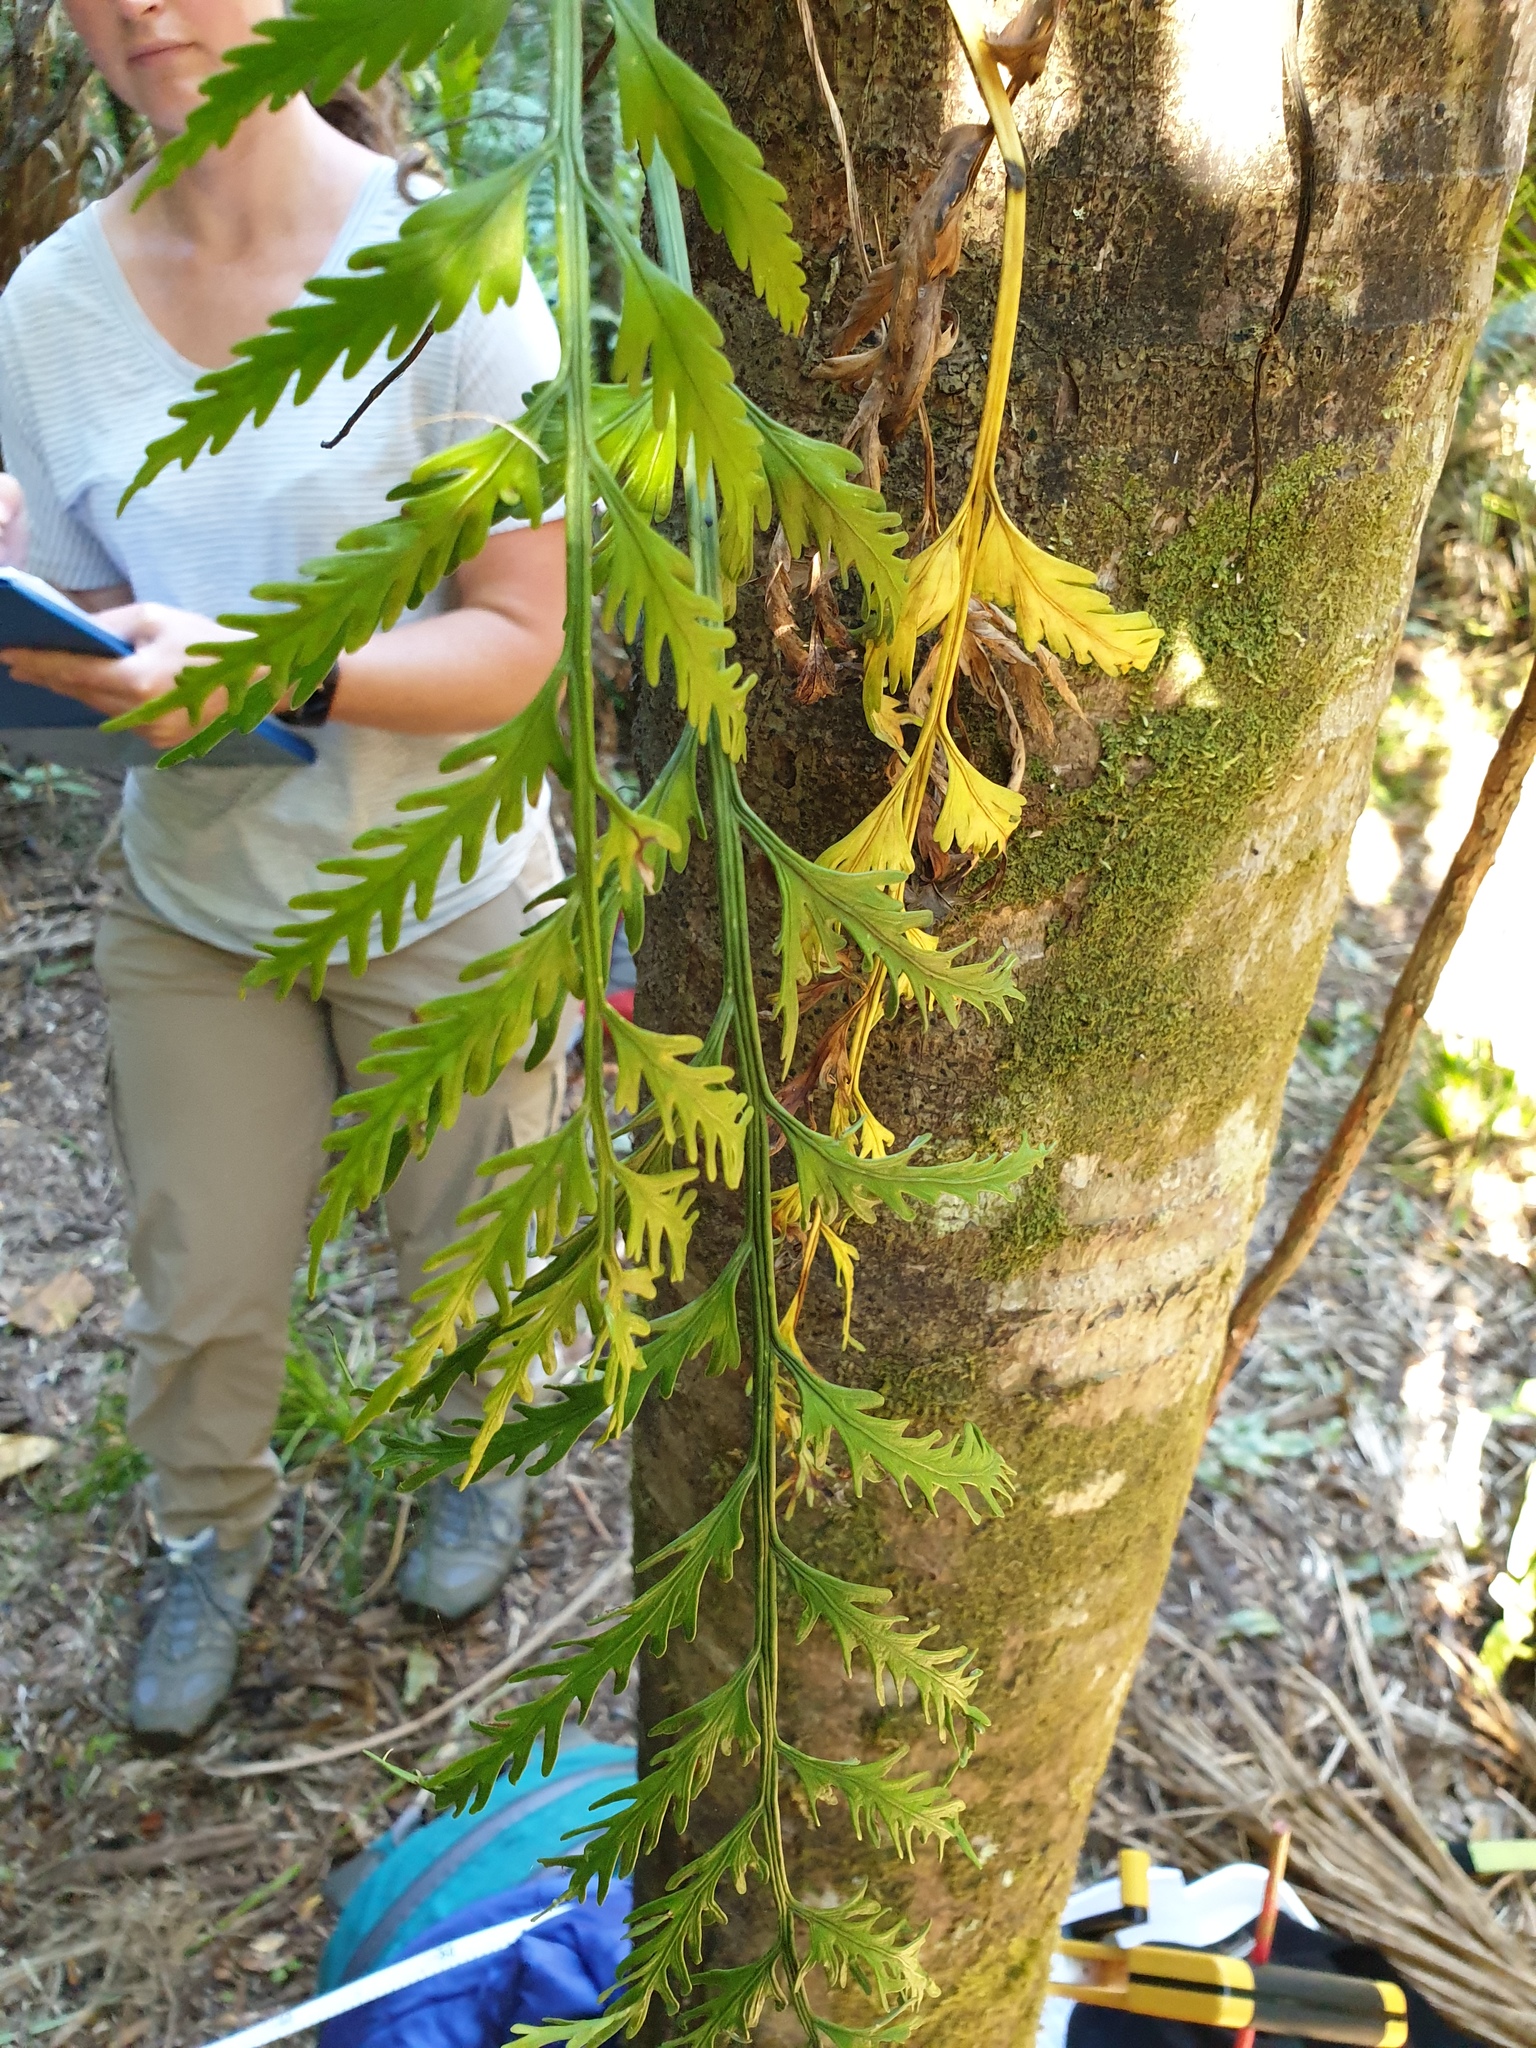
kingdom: Plantae
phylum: Tracheophyta
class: Polypodiopsida
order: Polypodiales
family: Aspleniaceae
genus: Asplenium
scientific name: Asplenium flaccidum
